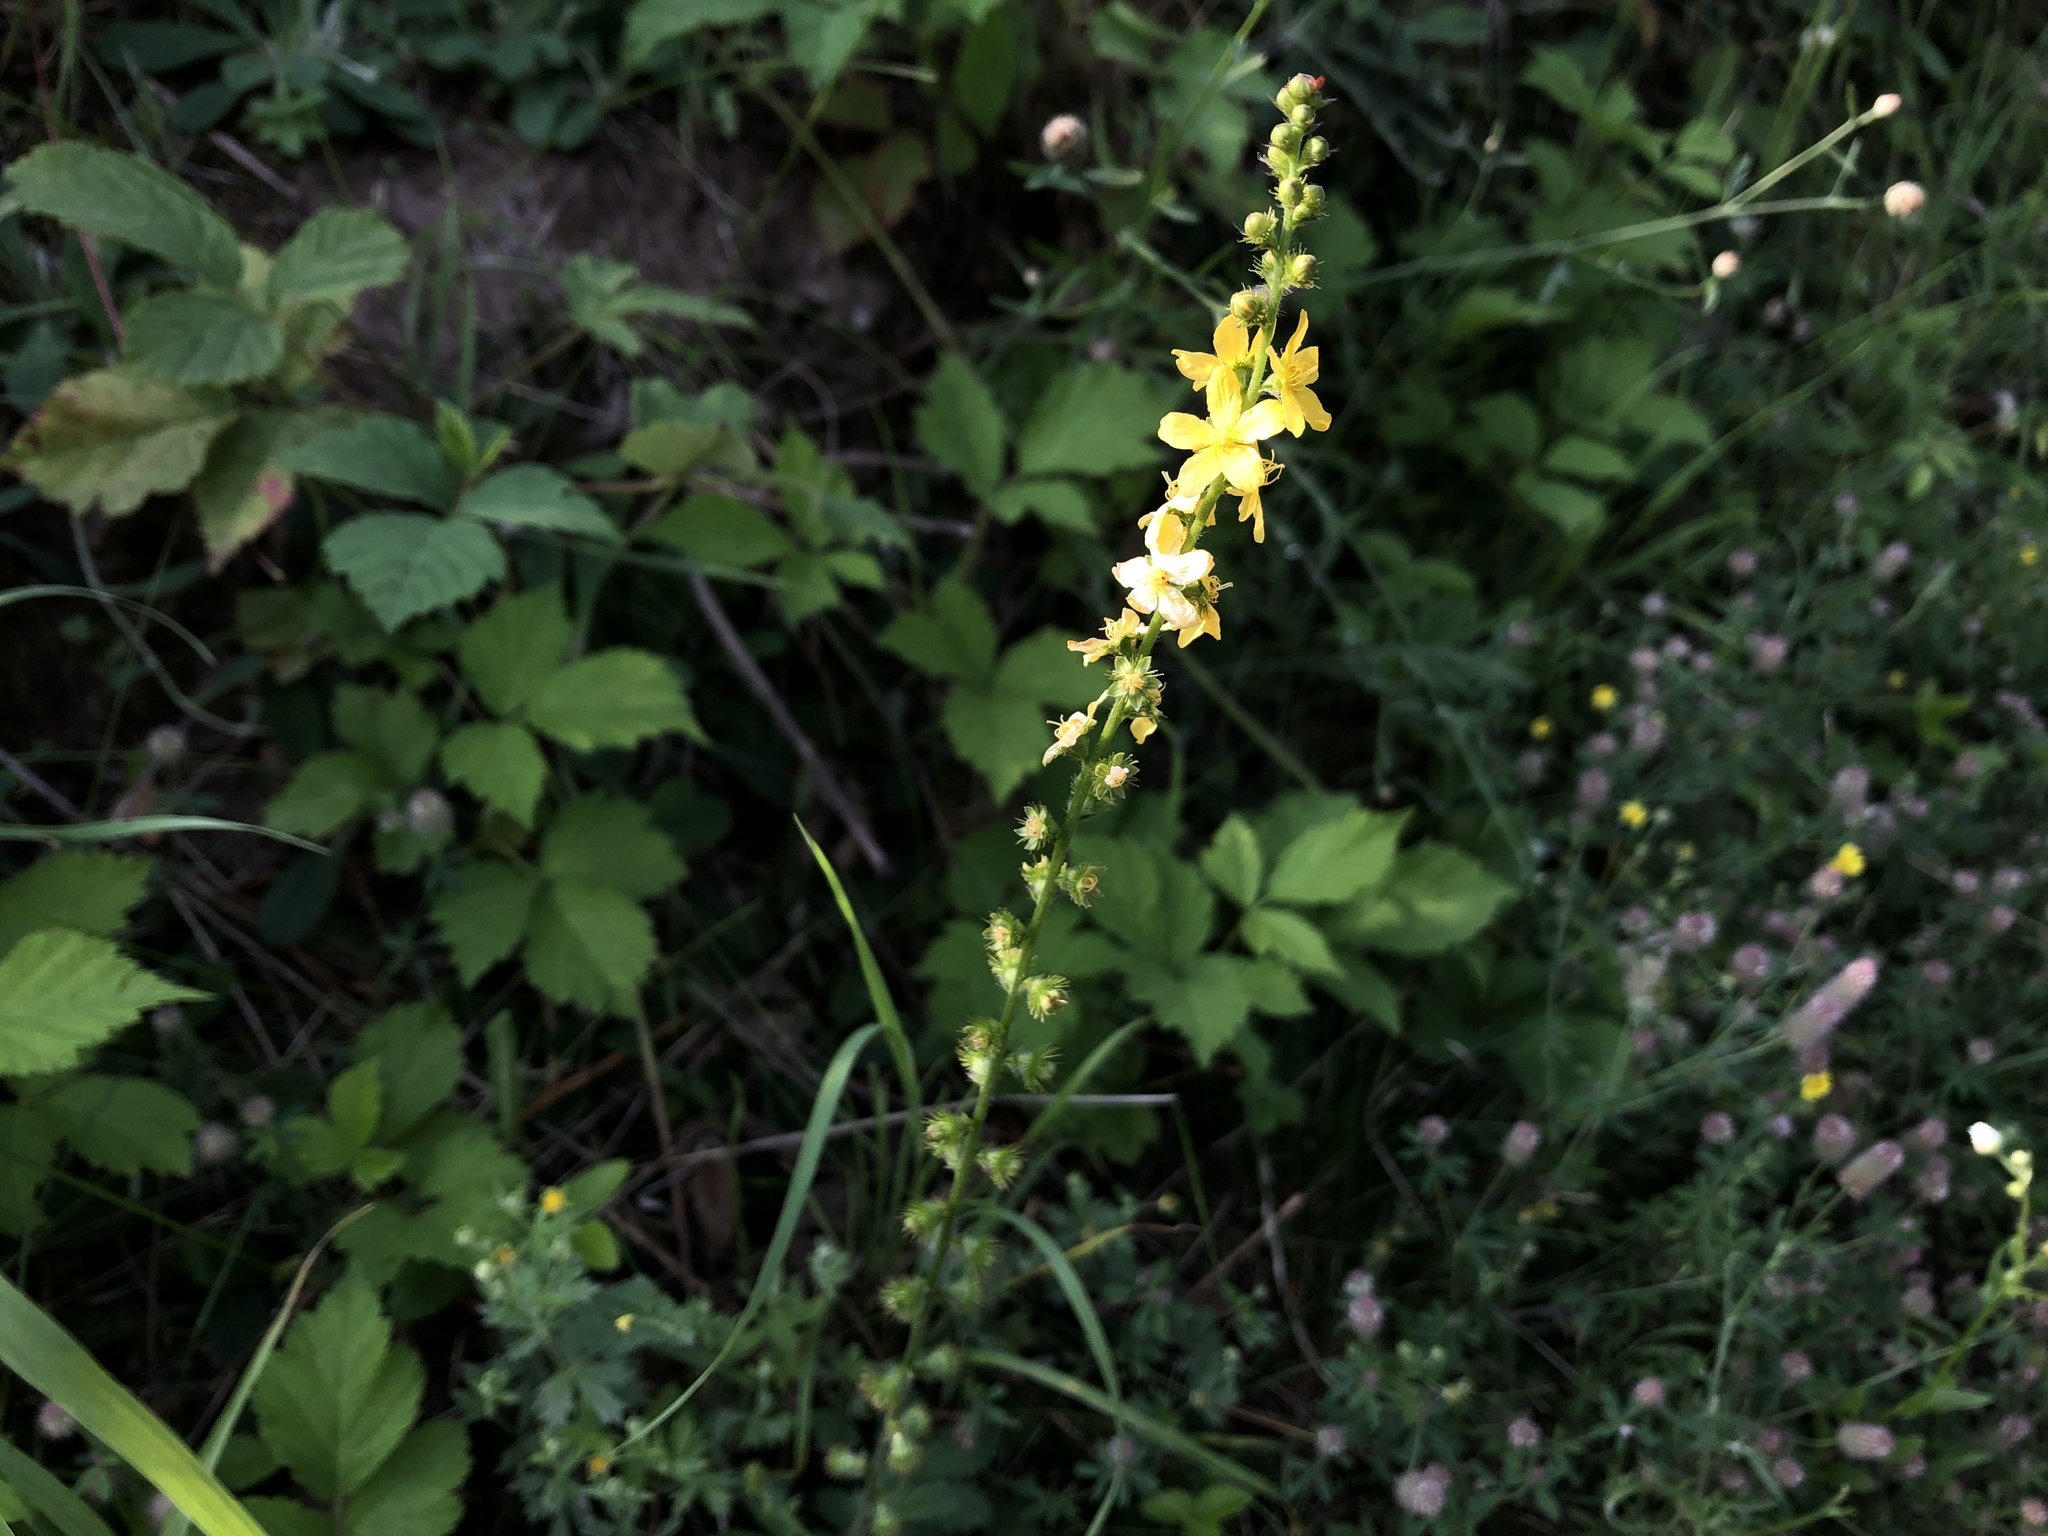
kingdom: Plantae
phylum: Tracheophyta
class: Magnoliopsida
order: Rosales
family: Rosaceae
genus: Agrimonia
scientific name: Agrimonia eupatoria
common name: Agrimony
